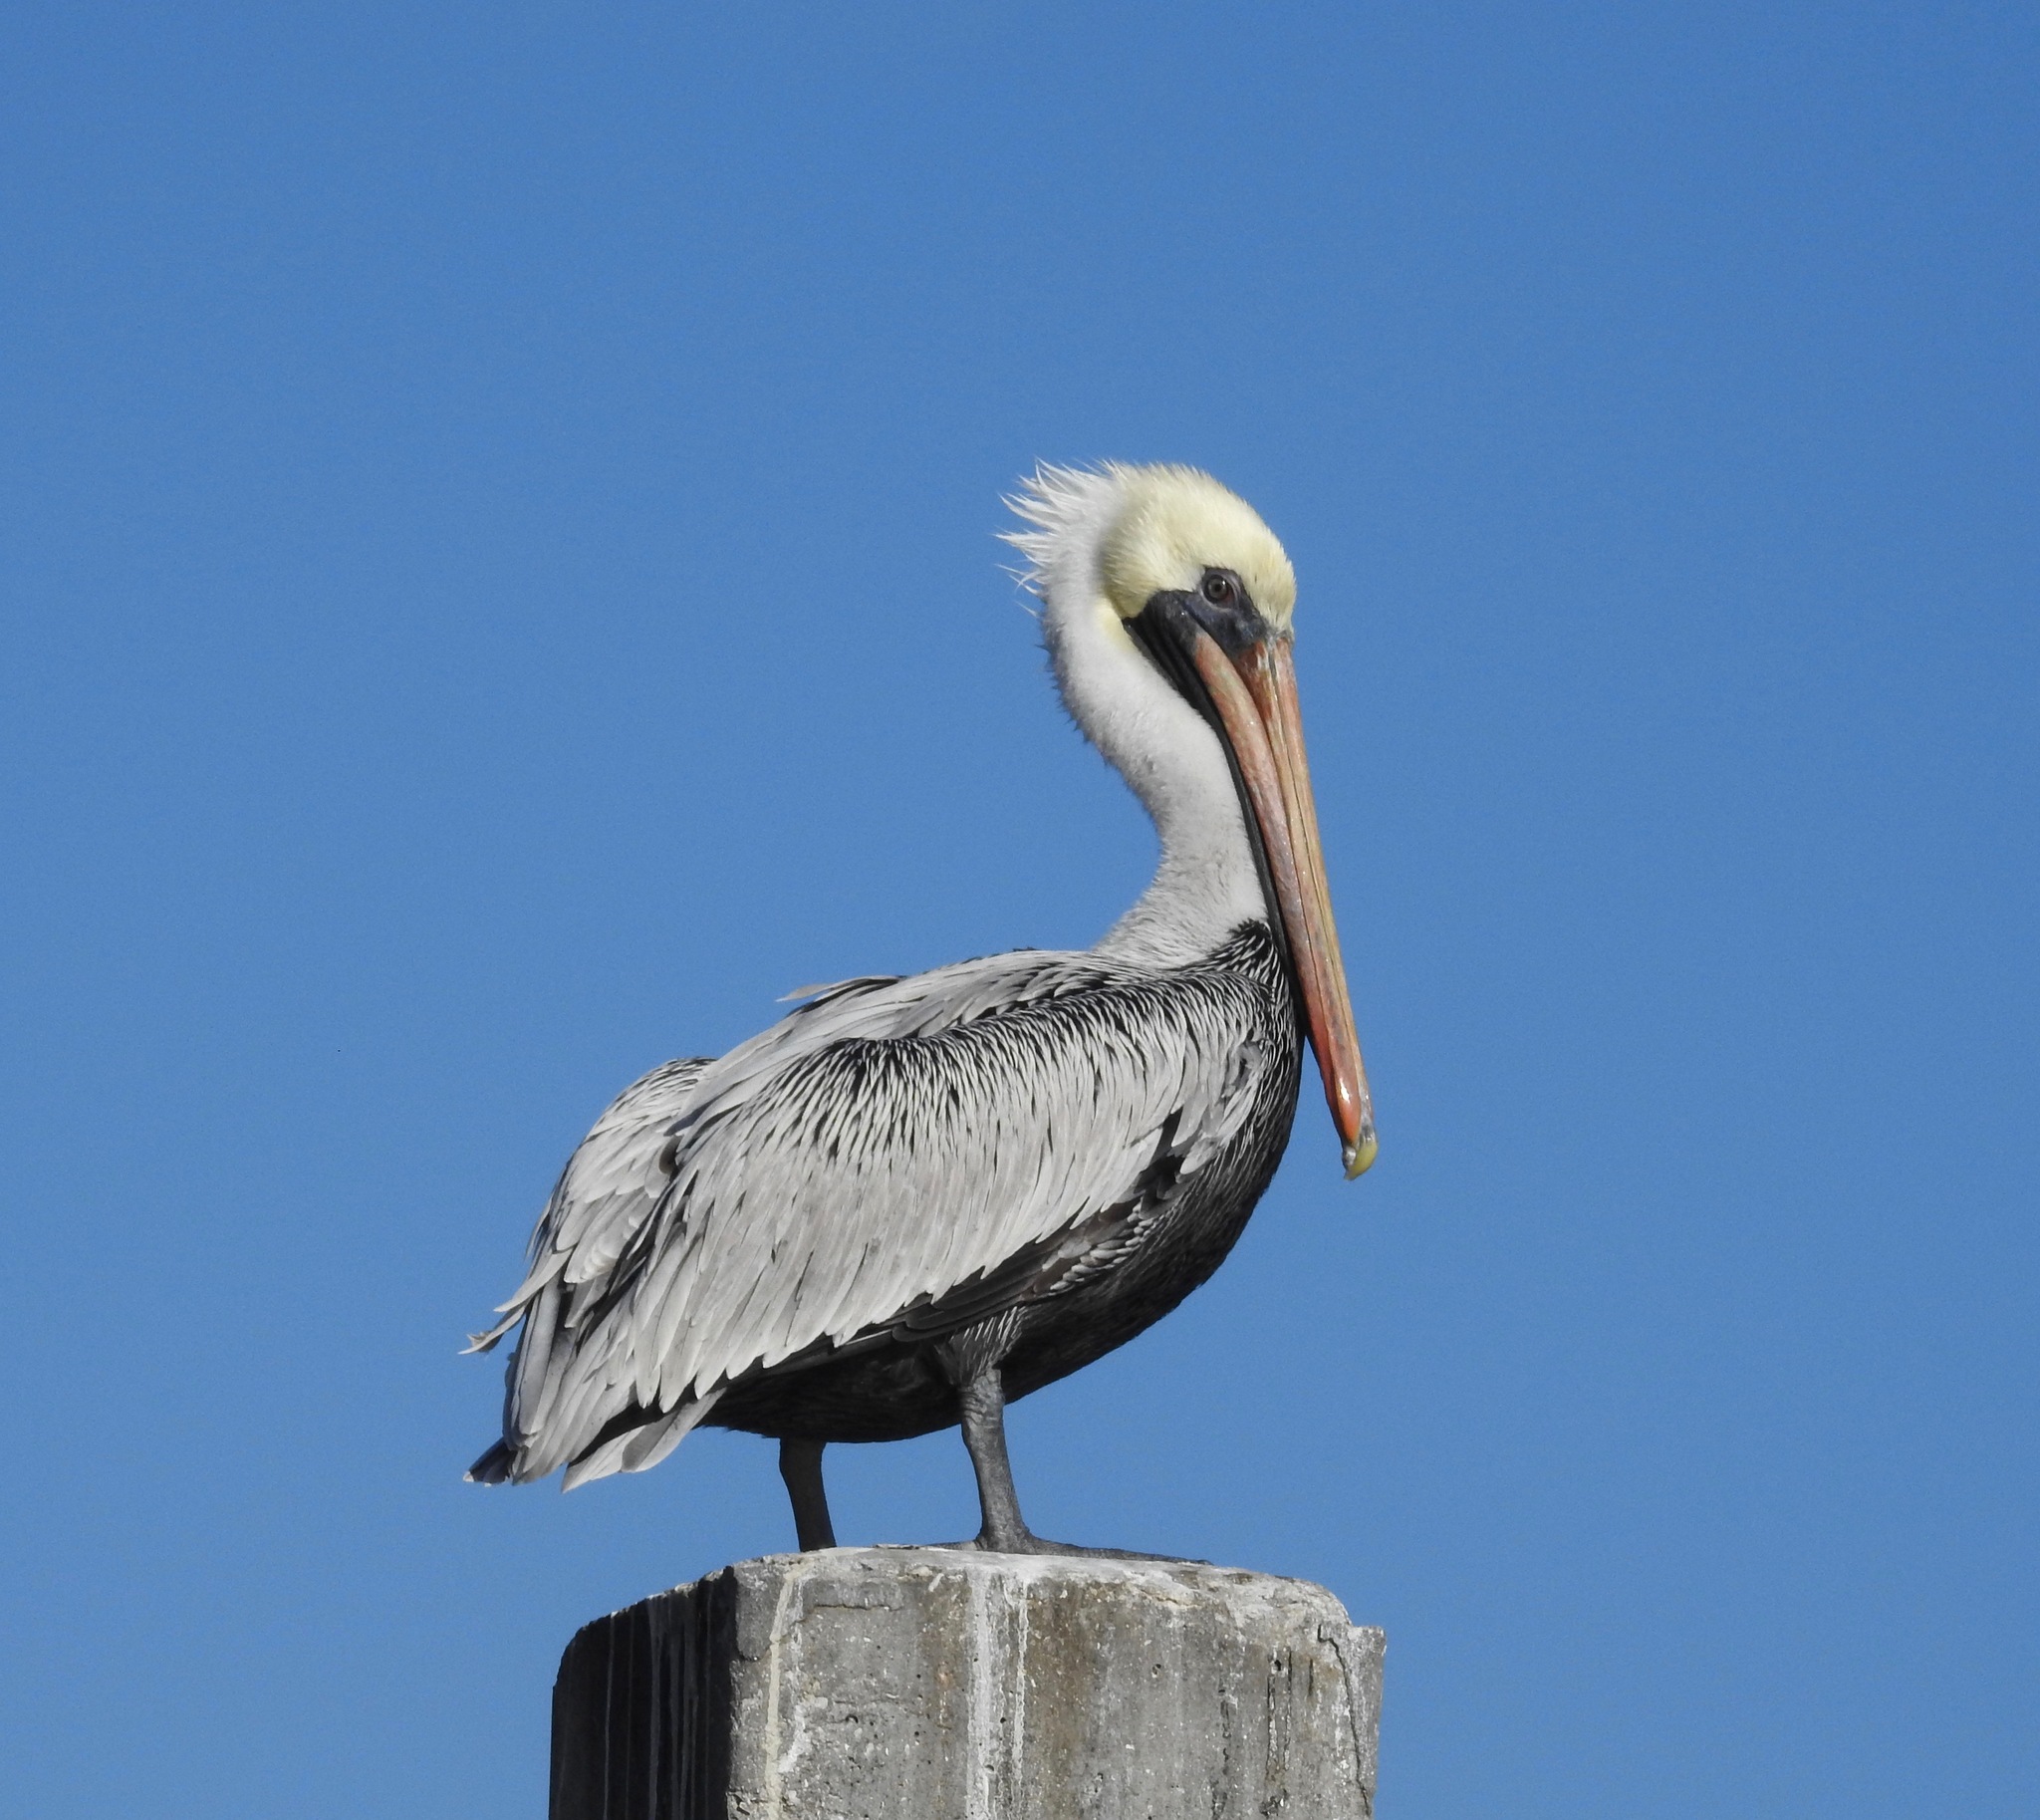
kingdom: Animalia
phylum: Chordata
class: Aves
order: Pelecaniformes
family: Pelecanidae
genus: Pelecanus
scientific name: Pelecanus occidentalis
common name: Brown pelican
